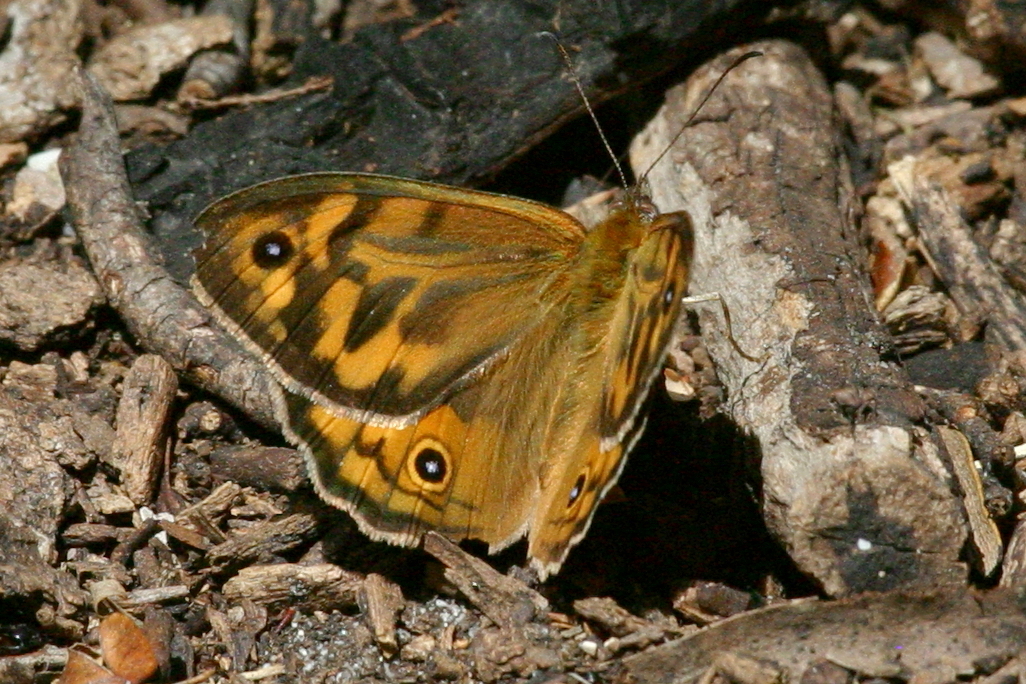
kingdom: Animalia
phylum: Arthropoda
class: Insecta
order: Lepidoptera
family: Nymphalidae
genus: Heteronympha
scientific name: Heteronympha merope
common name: Common brown
